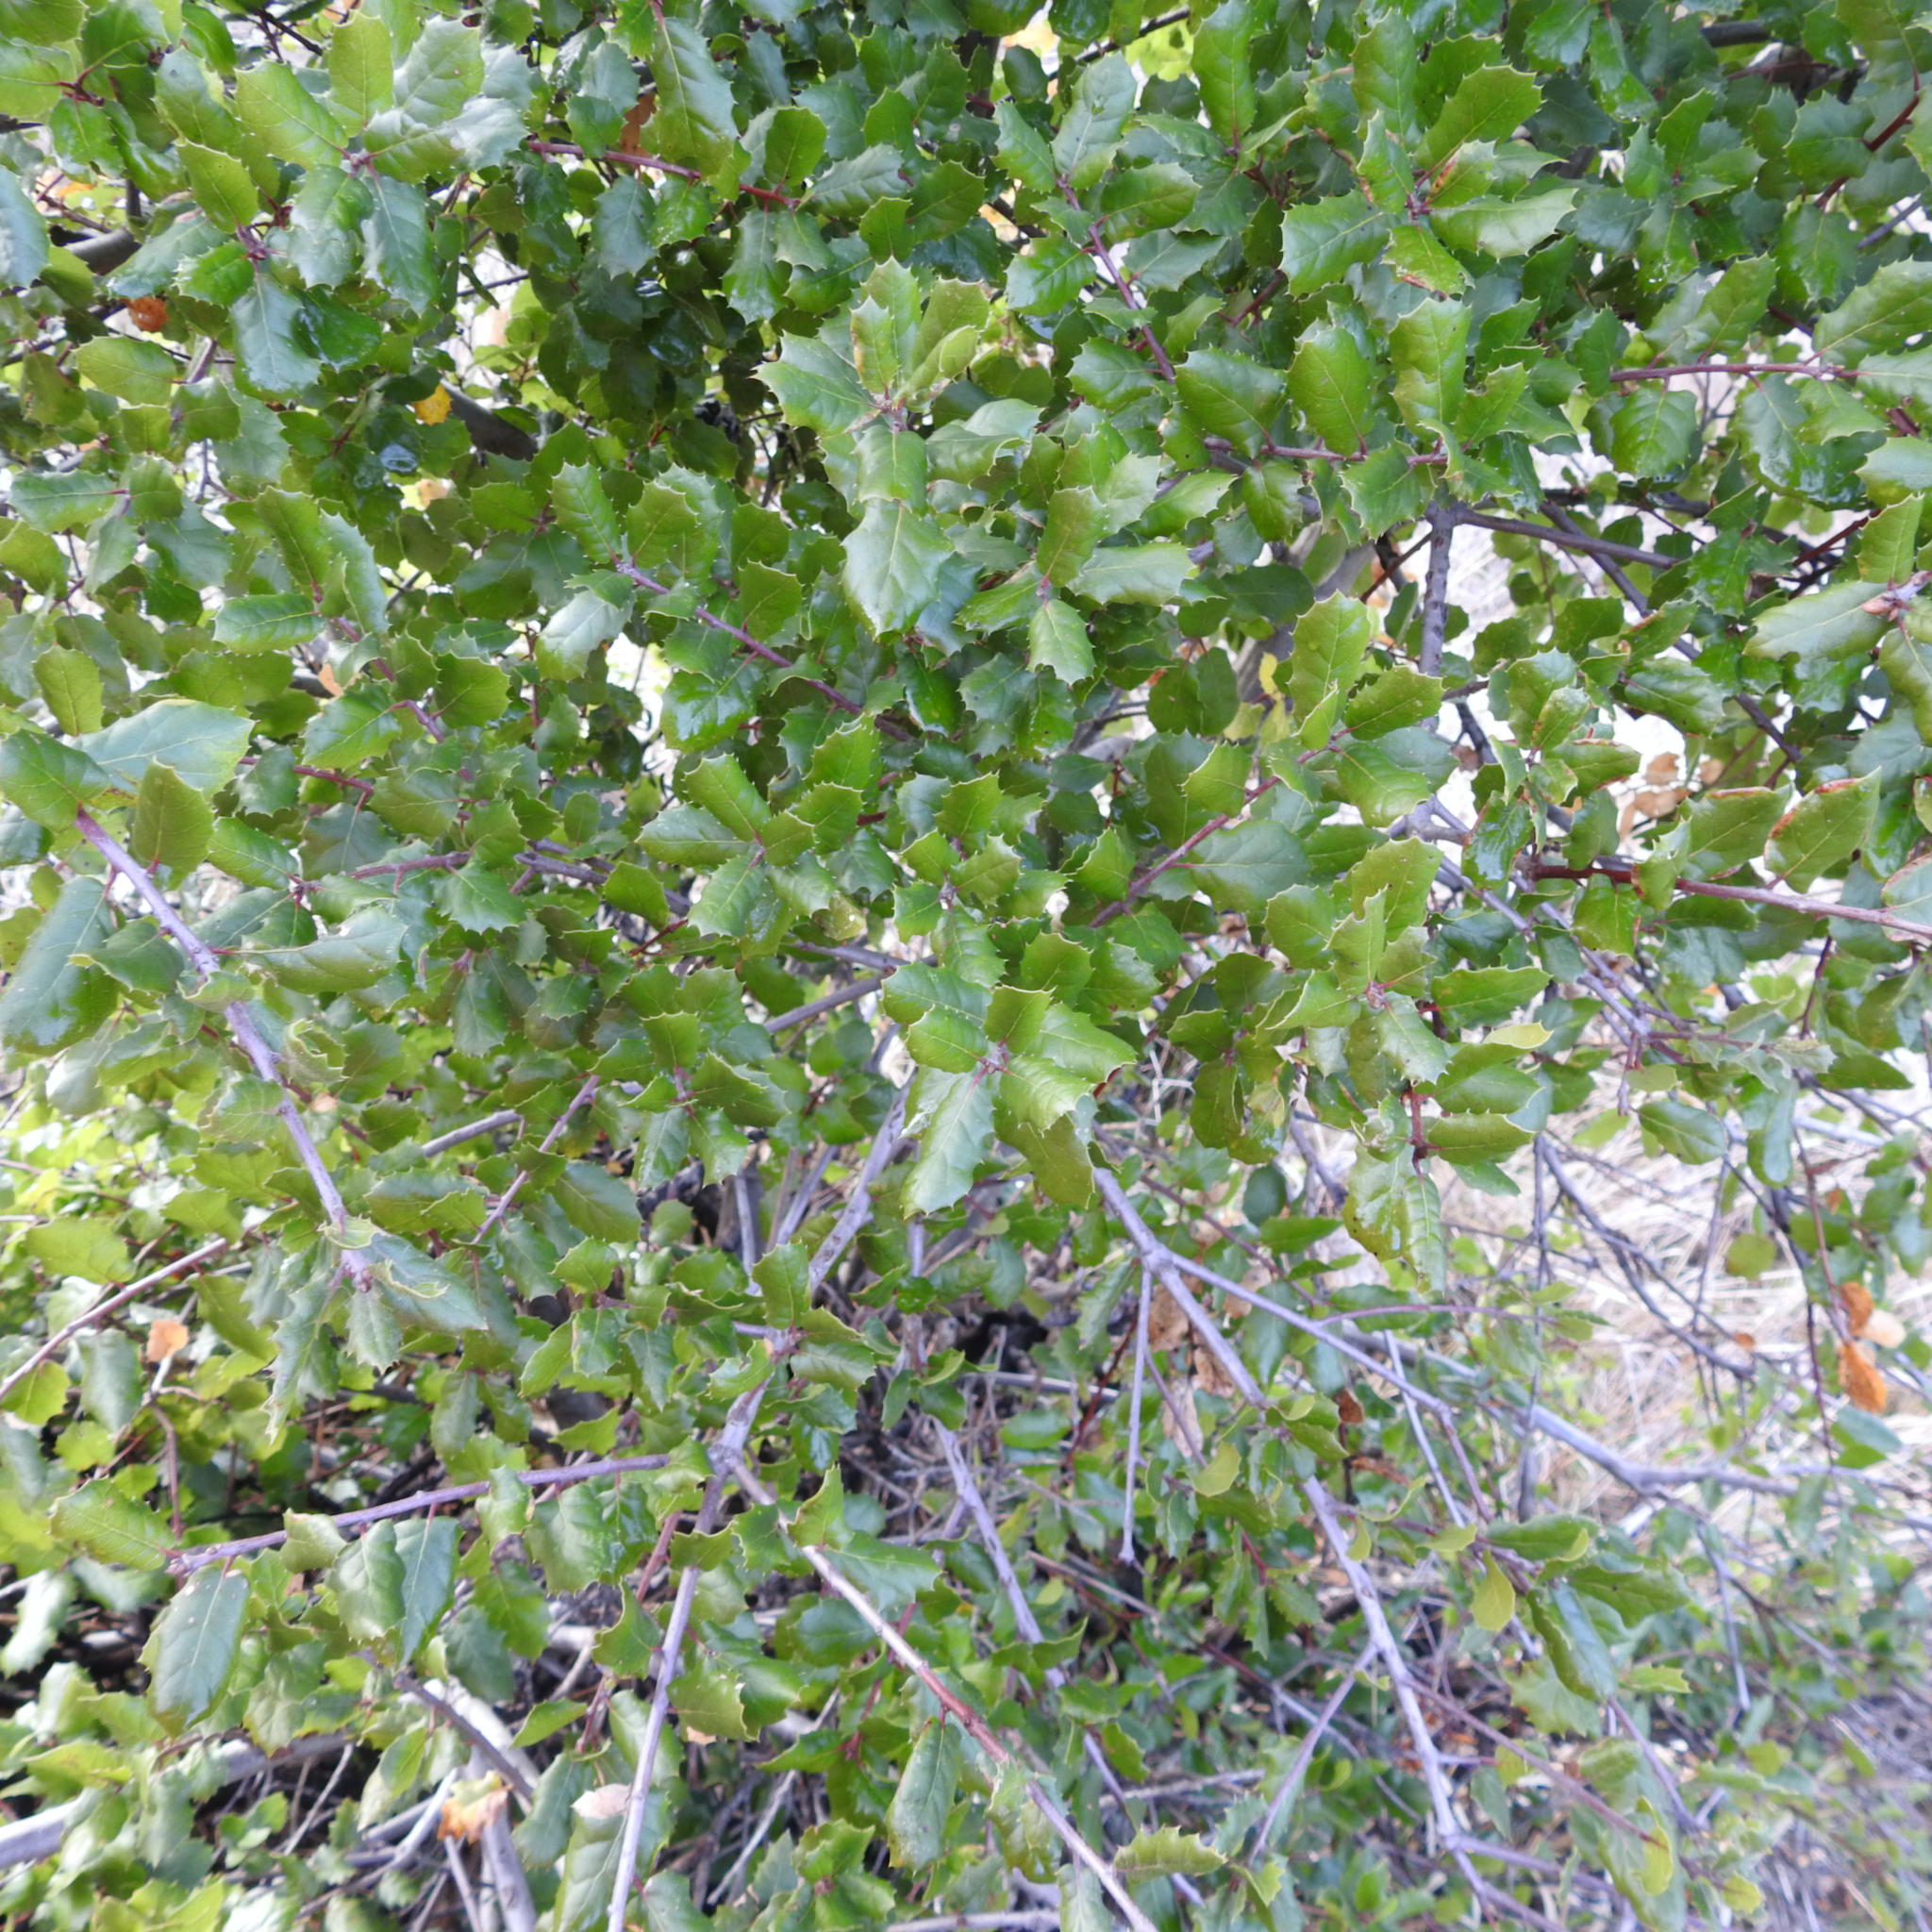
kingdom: Plantae
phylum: Tracheophyta
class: Magnoliopsida
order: Fagales
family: Fagaceae
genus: Quercus
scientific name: Quercus agrifolia
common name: California live oak
